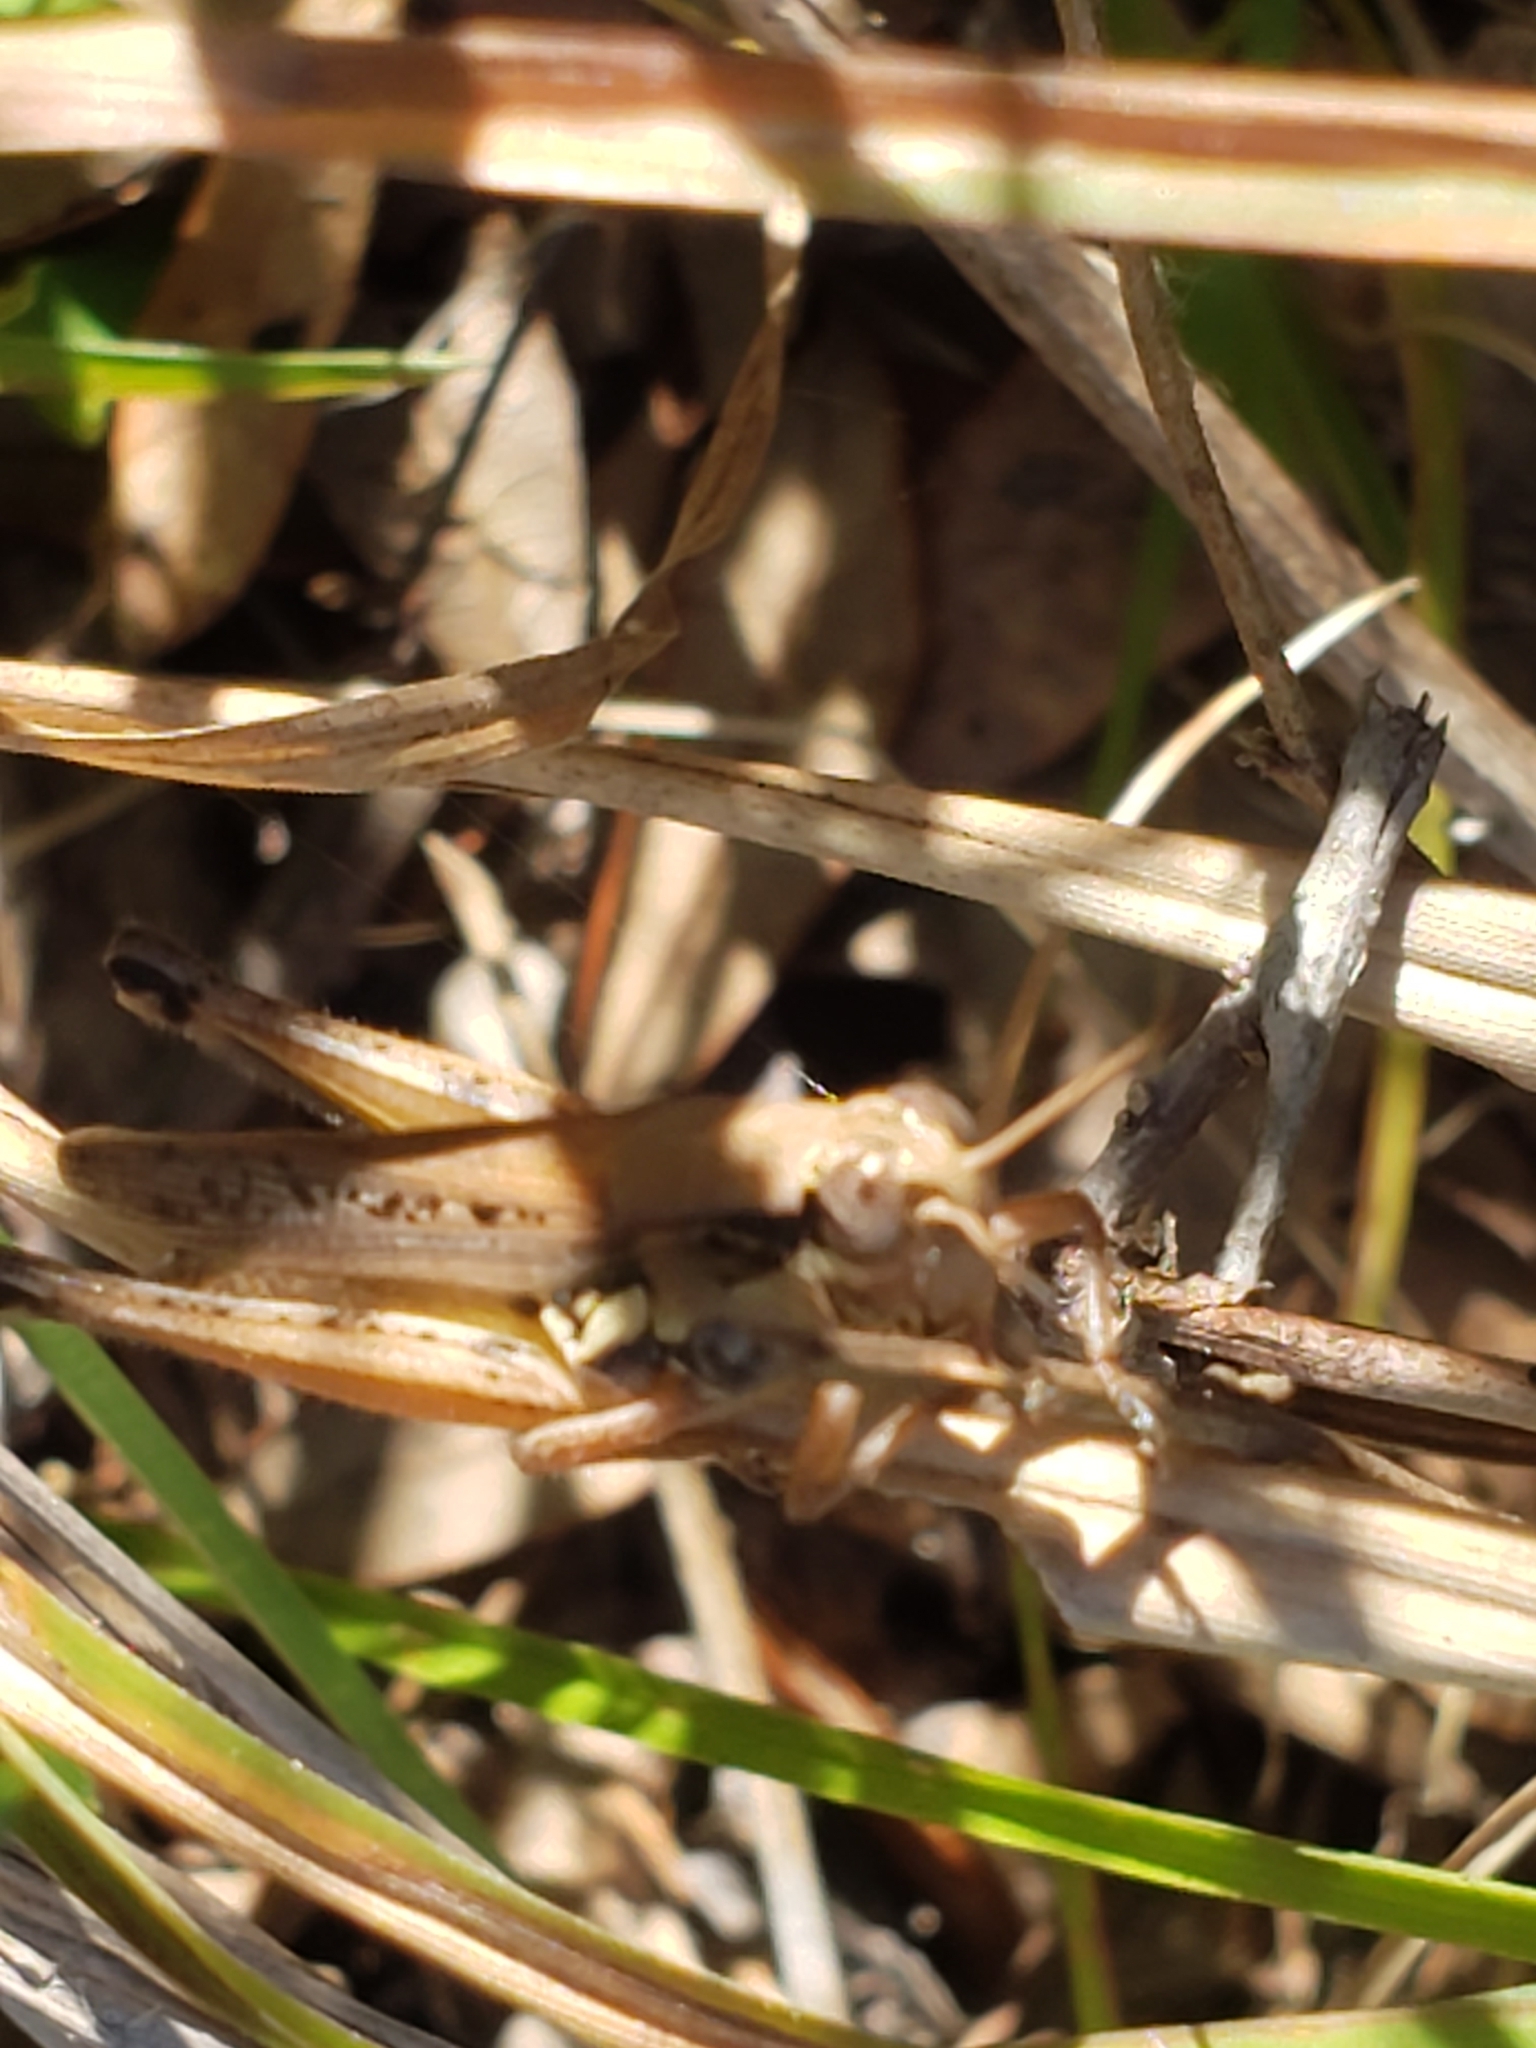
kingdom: Animalia
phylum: Arthropoda
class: Insecta
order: Orthoptera
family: Acrididae
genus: Paroxya
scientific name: Paroxya atlantica
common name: Atlantic grasshopper
